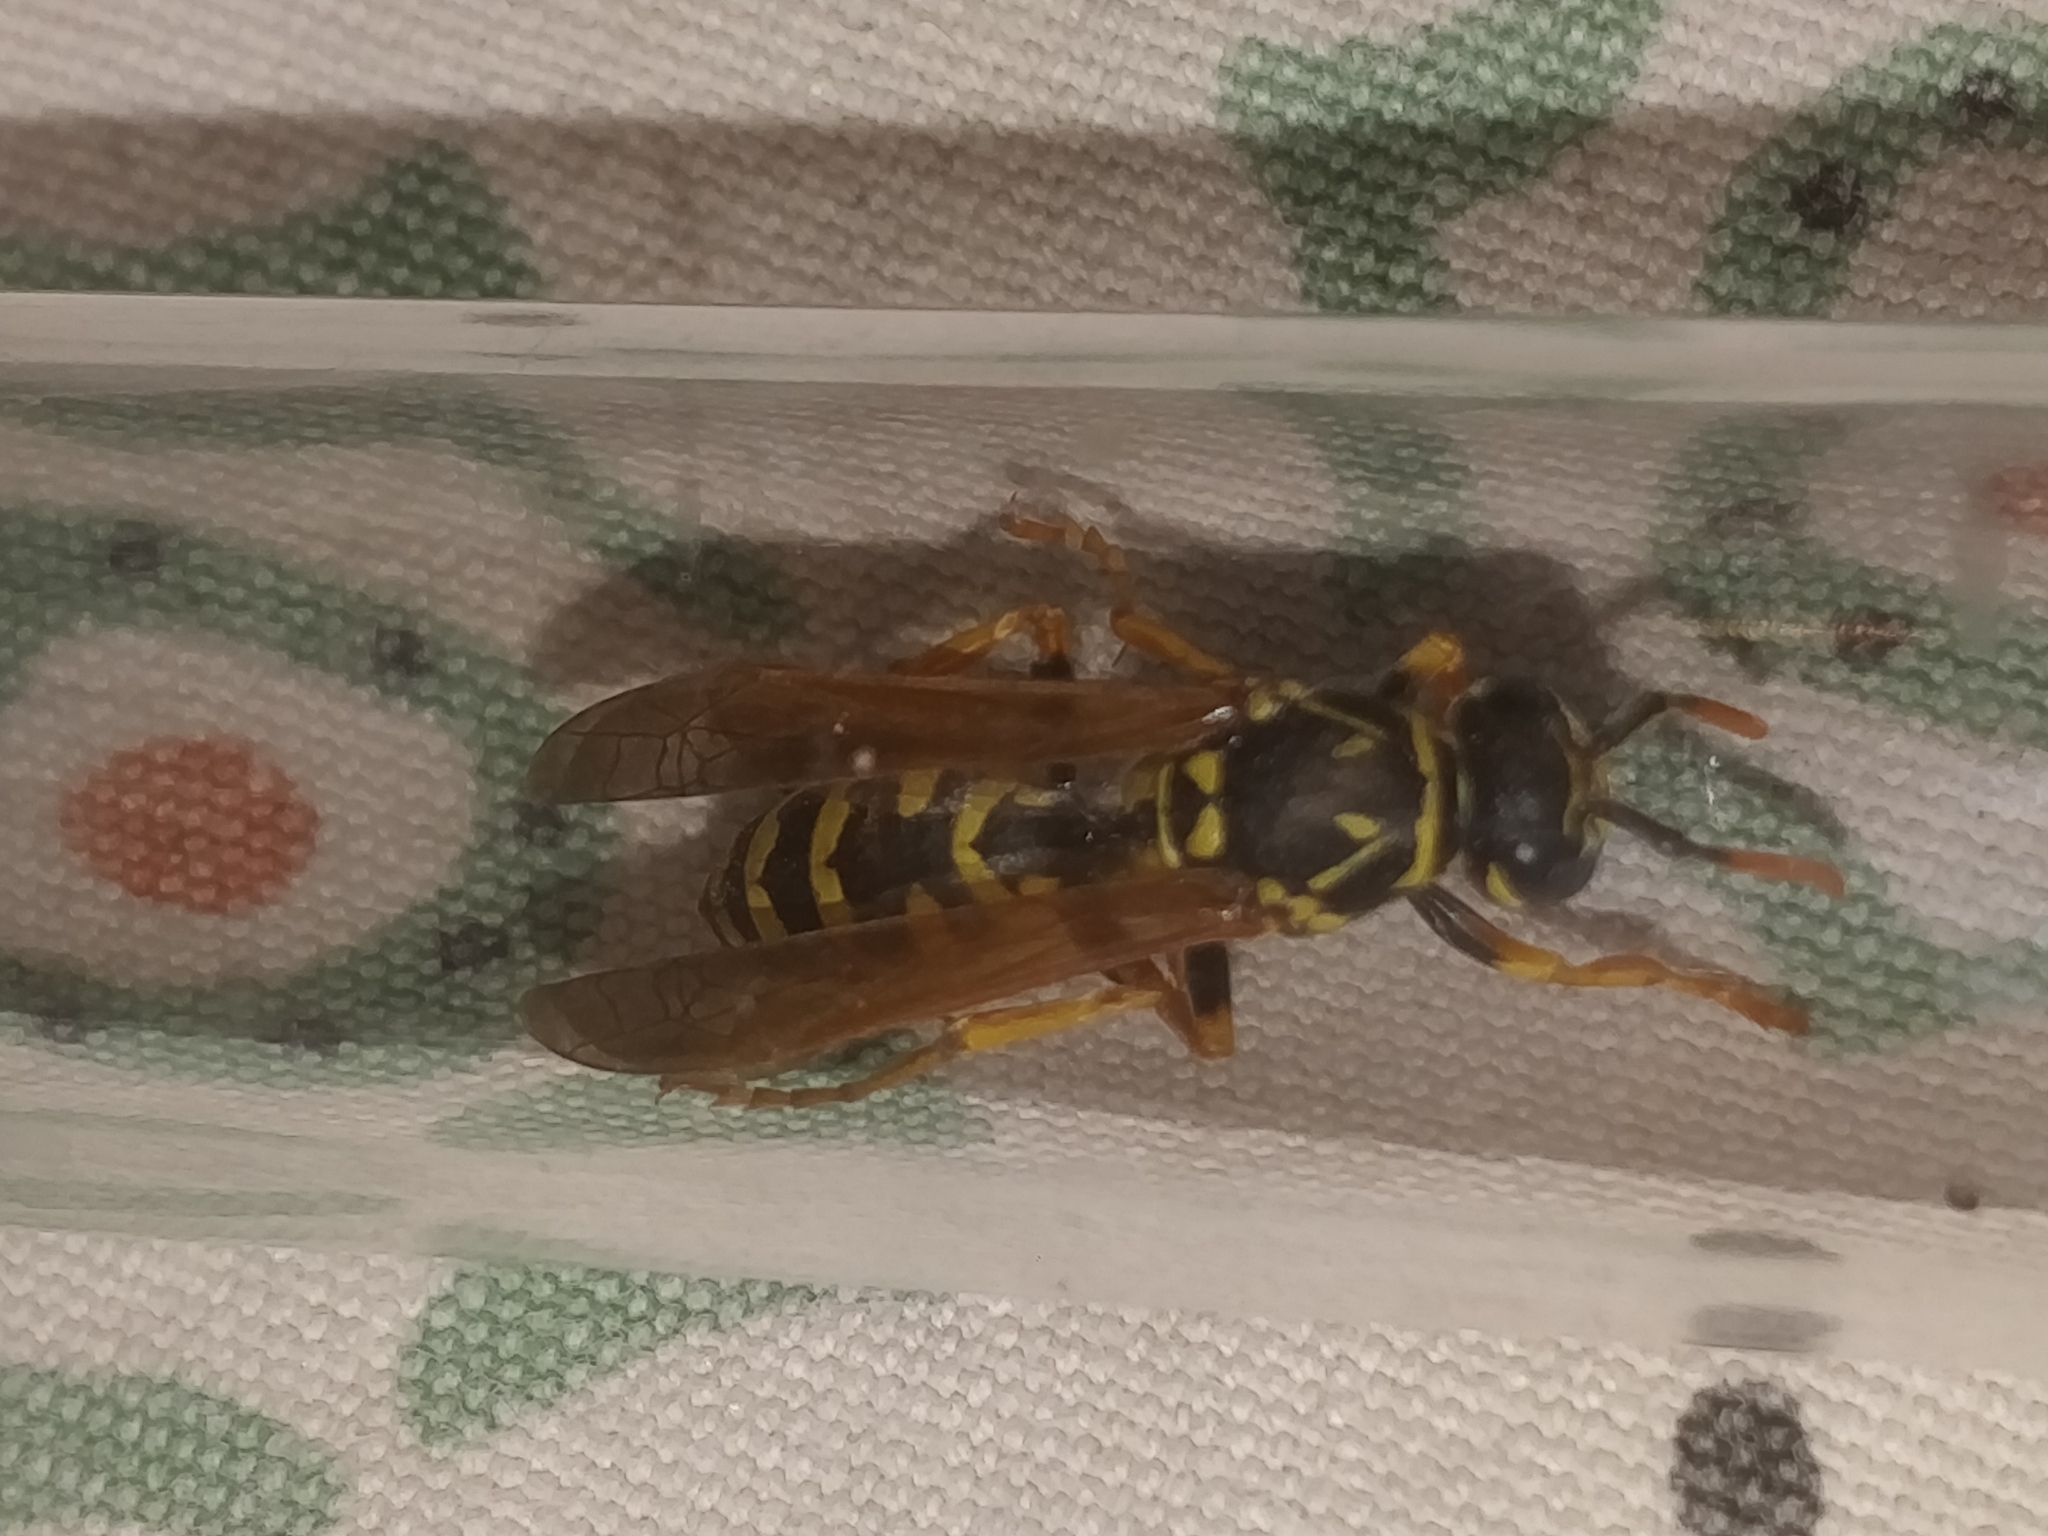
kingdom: Animalia
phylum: Arthropoda
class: Insecta
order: Hymenoptera
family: Eumenidae
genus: Polistes
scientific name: Polistes dominula
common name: Paper wasp
